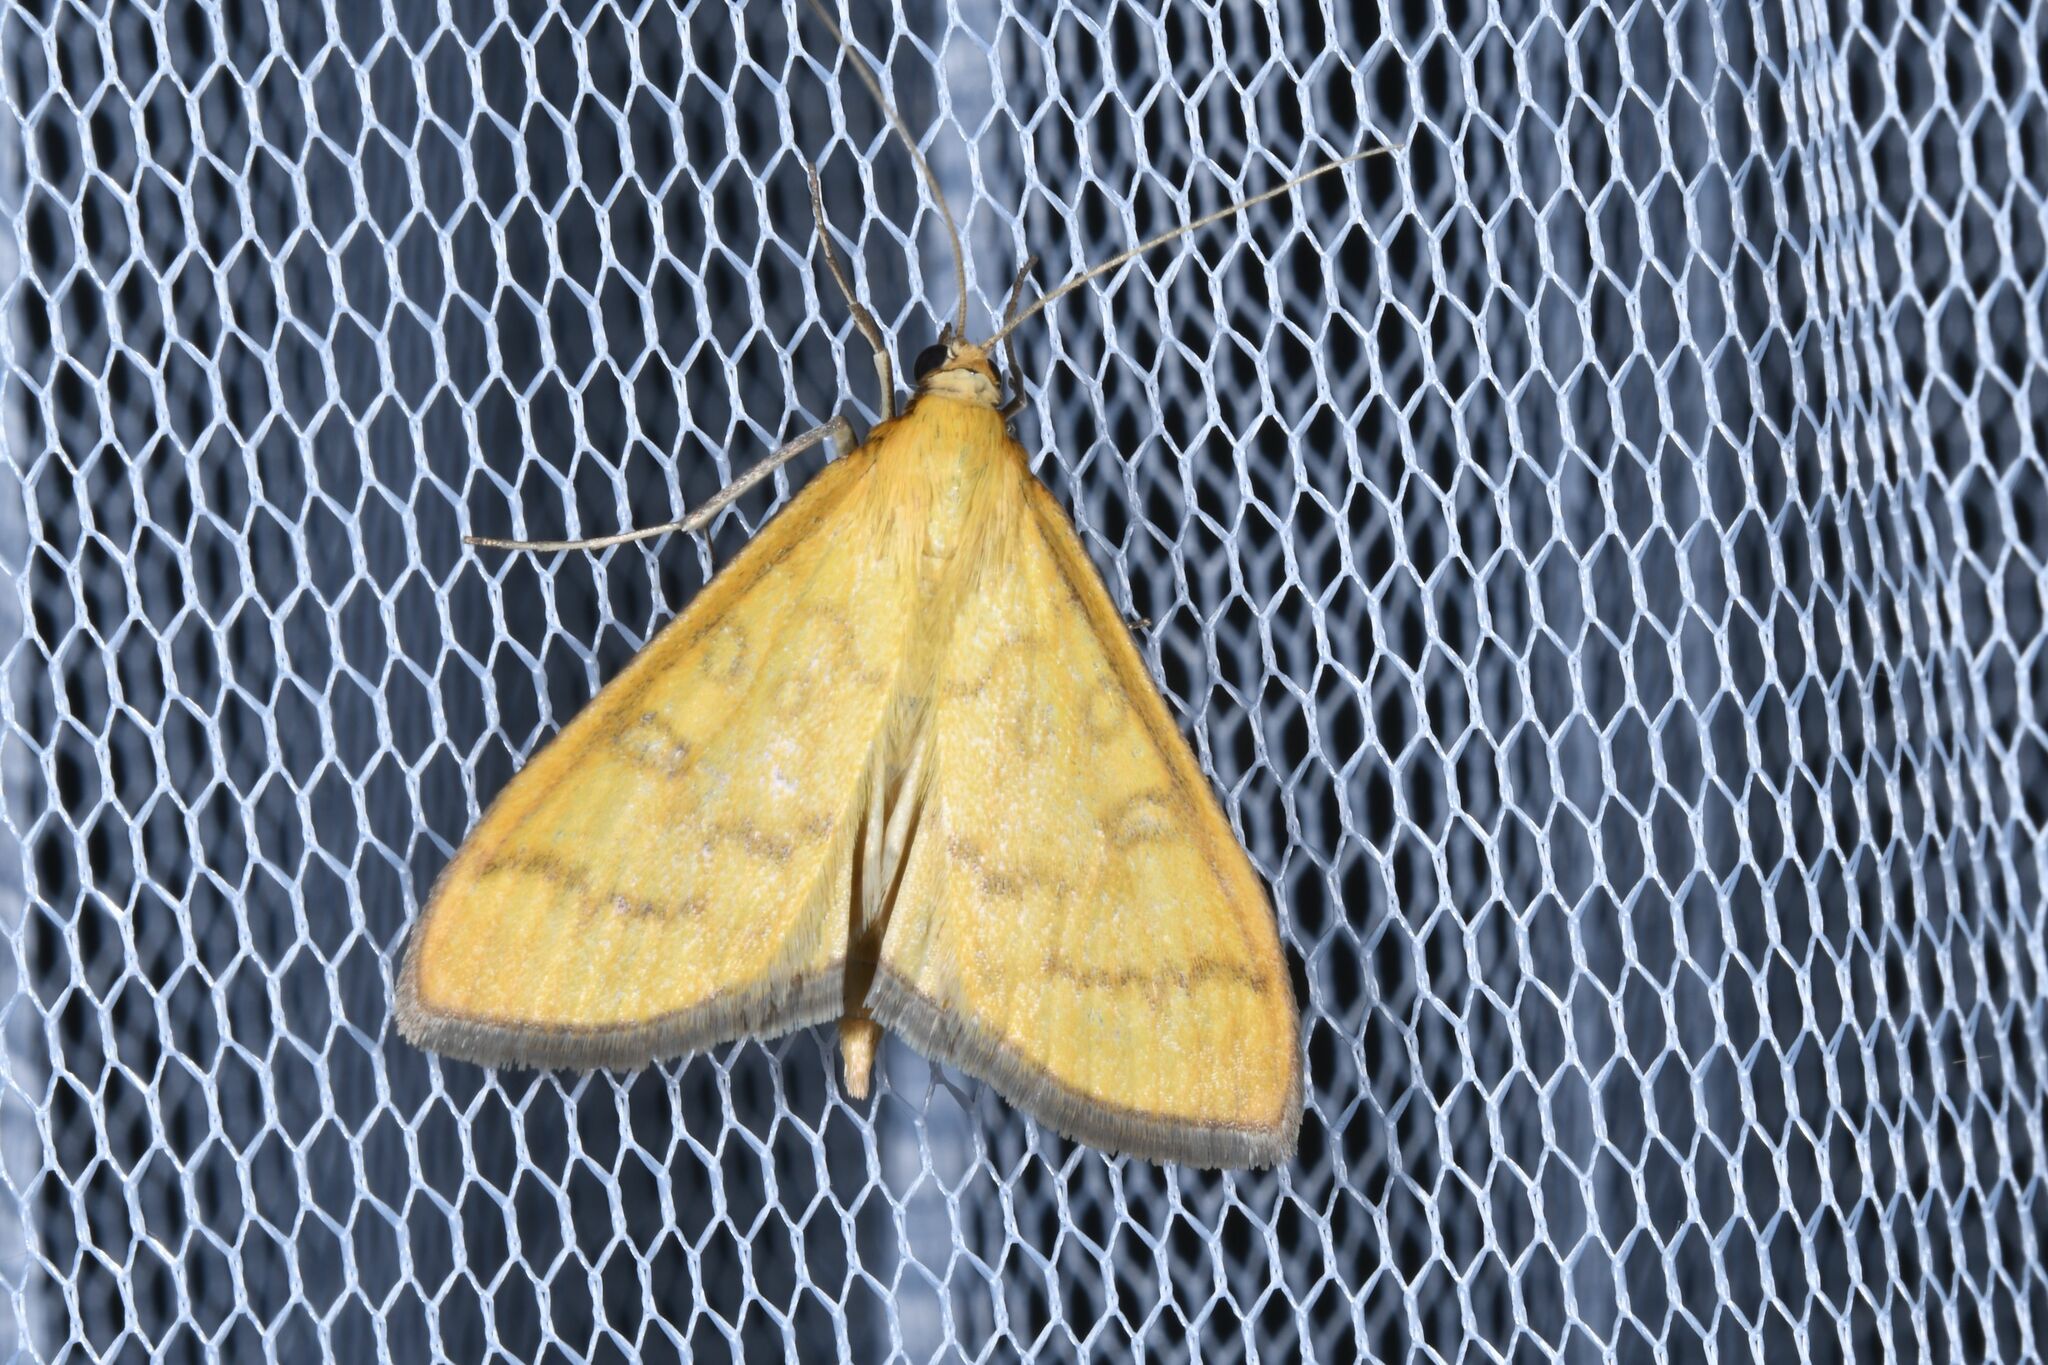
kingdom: Animalia
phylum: Arthropoda
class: Insecta
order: Lepidoptera
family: Crambidae
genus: Mecyna
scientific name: Mecyna flavalis
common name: Yellow pearl
